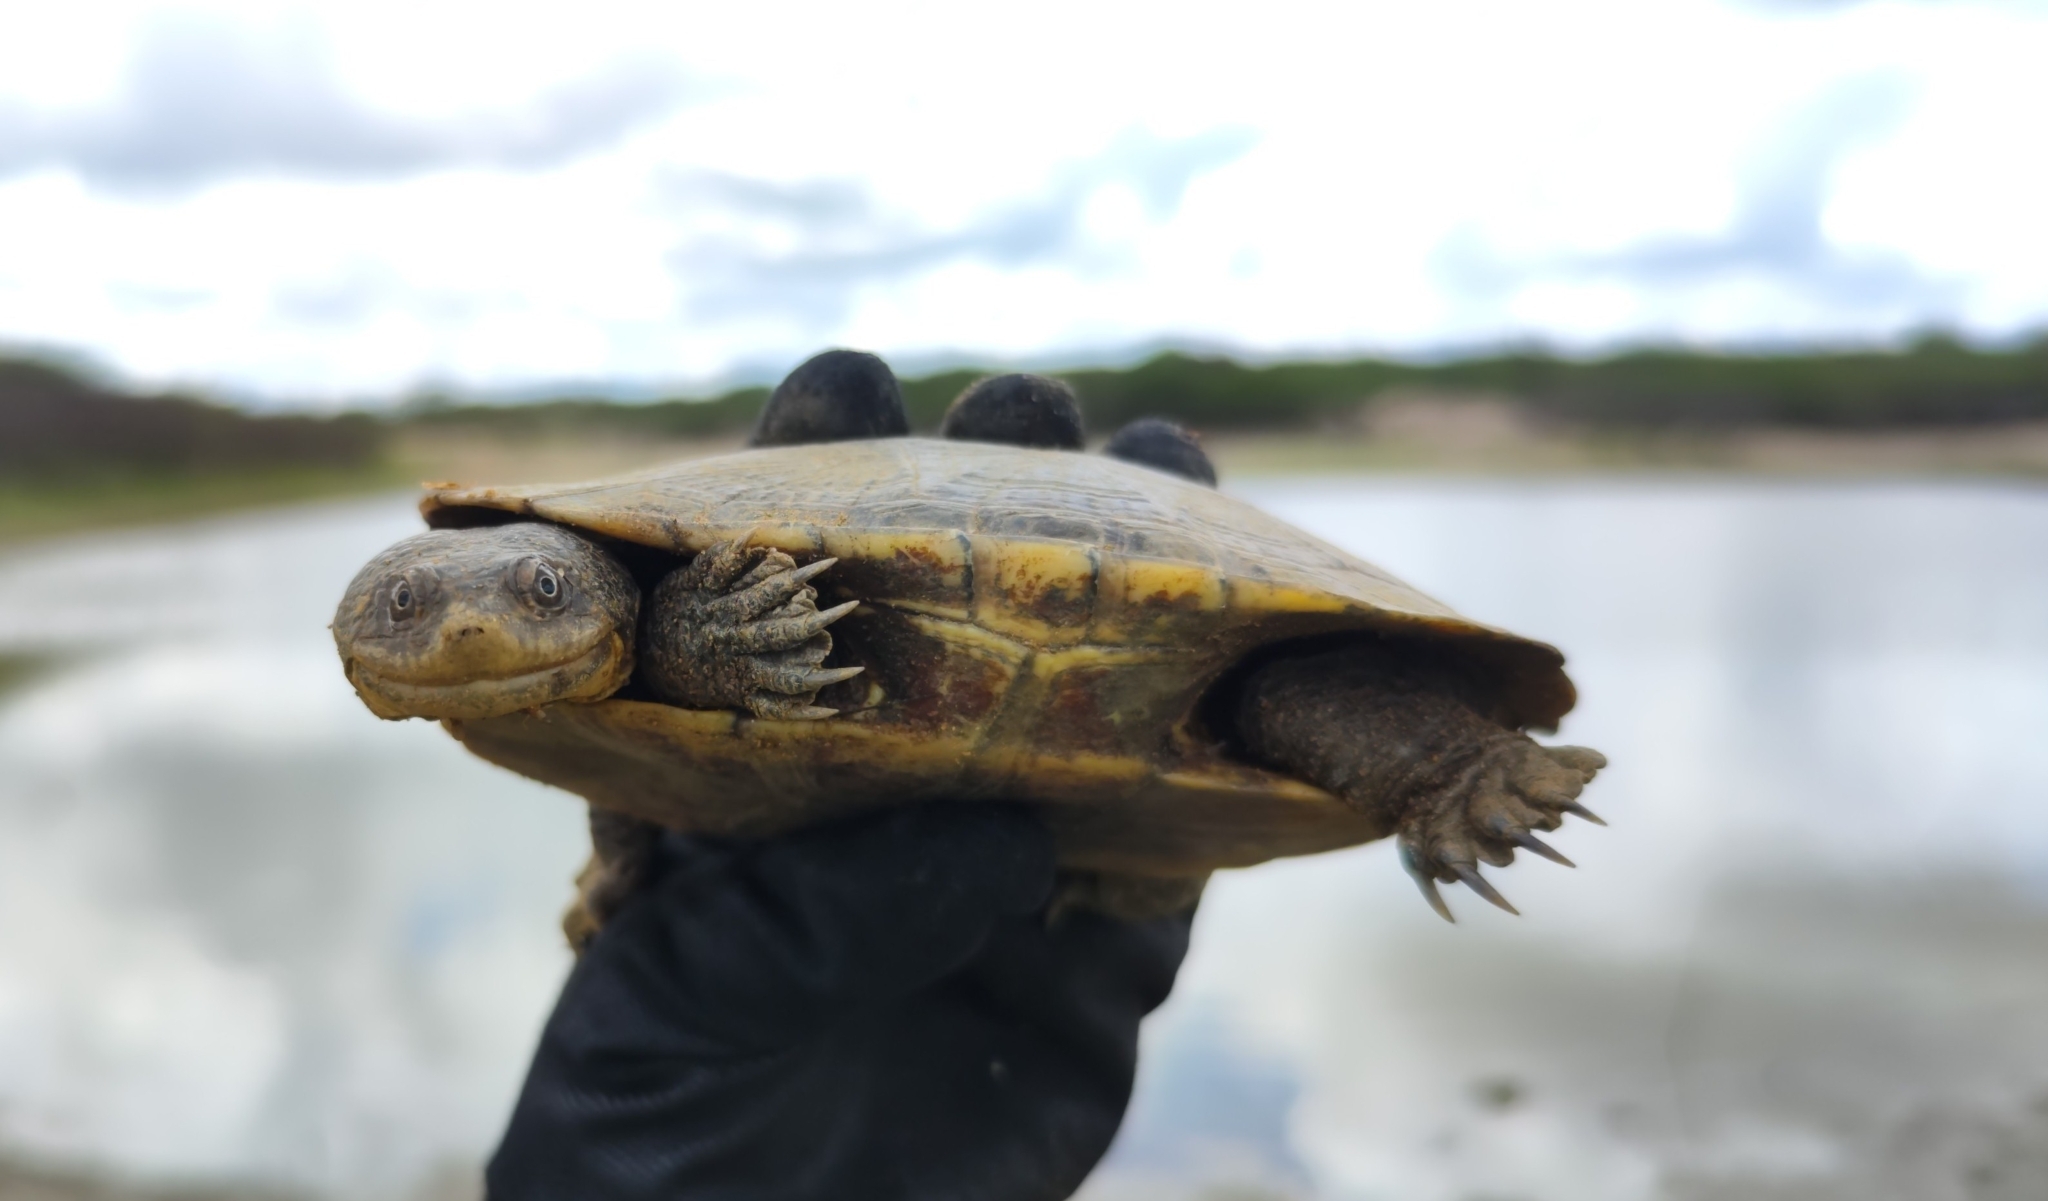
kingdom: Animalia
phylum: Chordata
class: Testudines
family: Chelidae
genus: Mesoclemmys
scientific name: Mesoclemmys tuberculata
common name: Tuberculate toad-headed turtle
